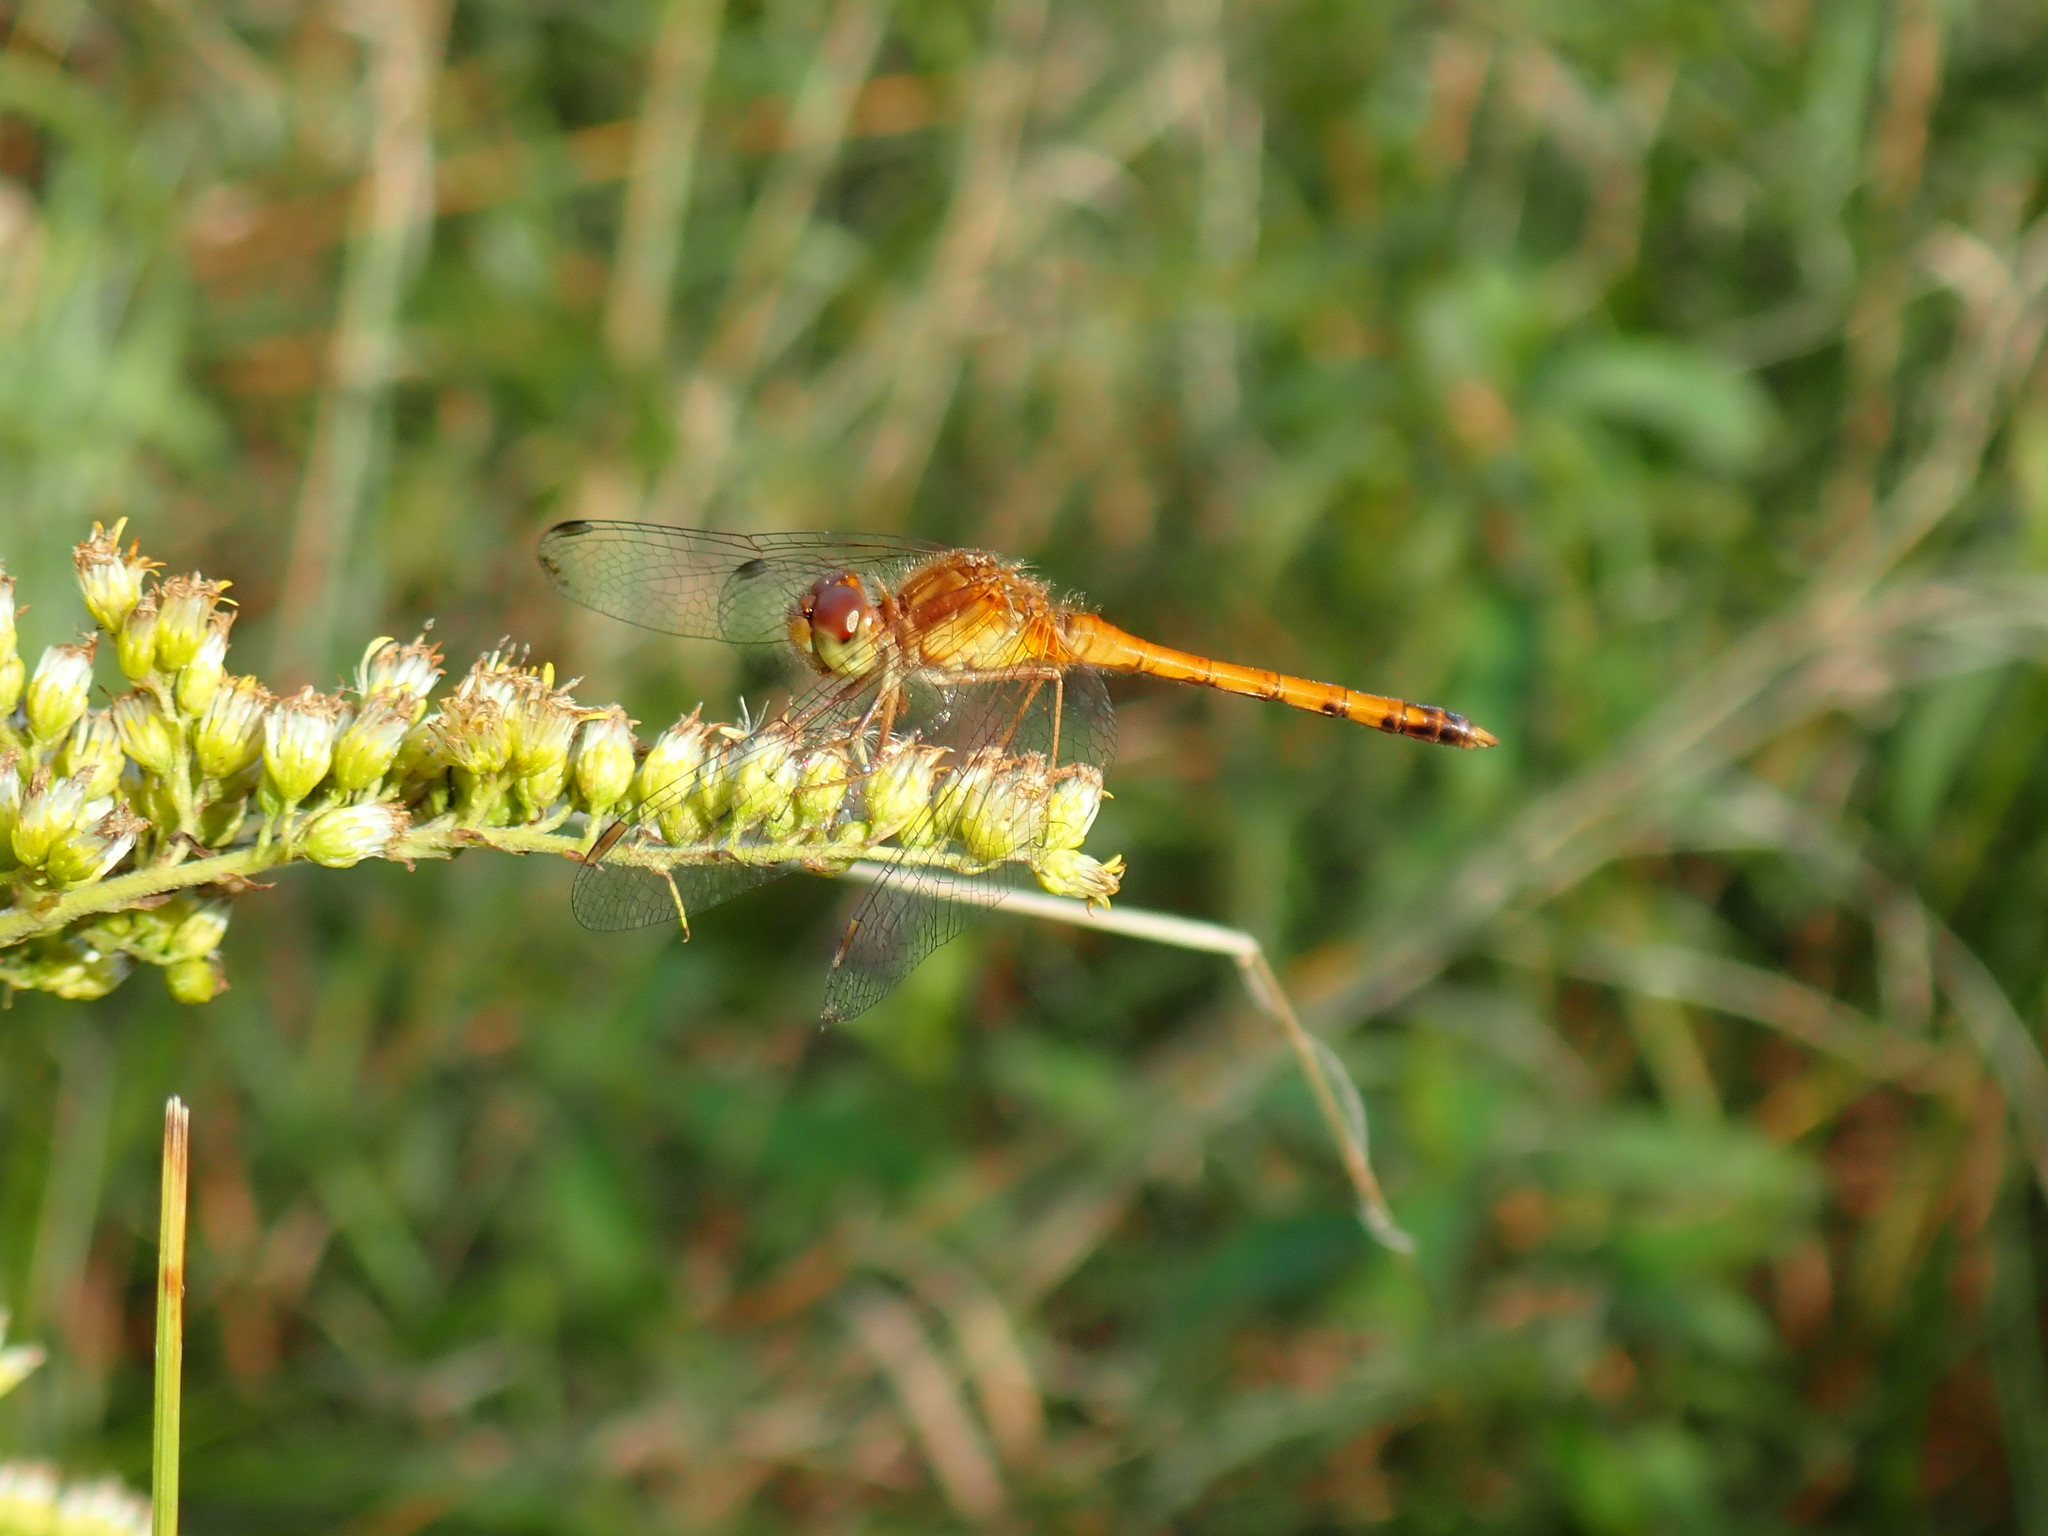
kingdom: Animalia
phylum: Arthropoda
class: Insecta
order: Odonata
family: Libellulidae
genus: Sympetrum
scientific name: Sympetrum vicinum
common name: Autumn meadowhawk
